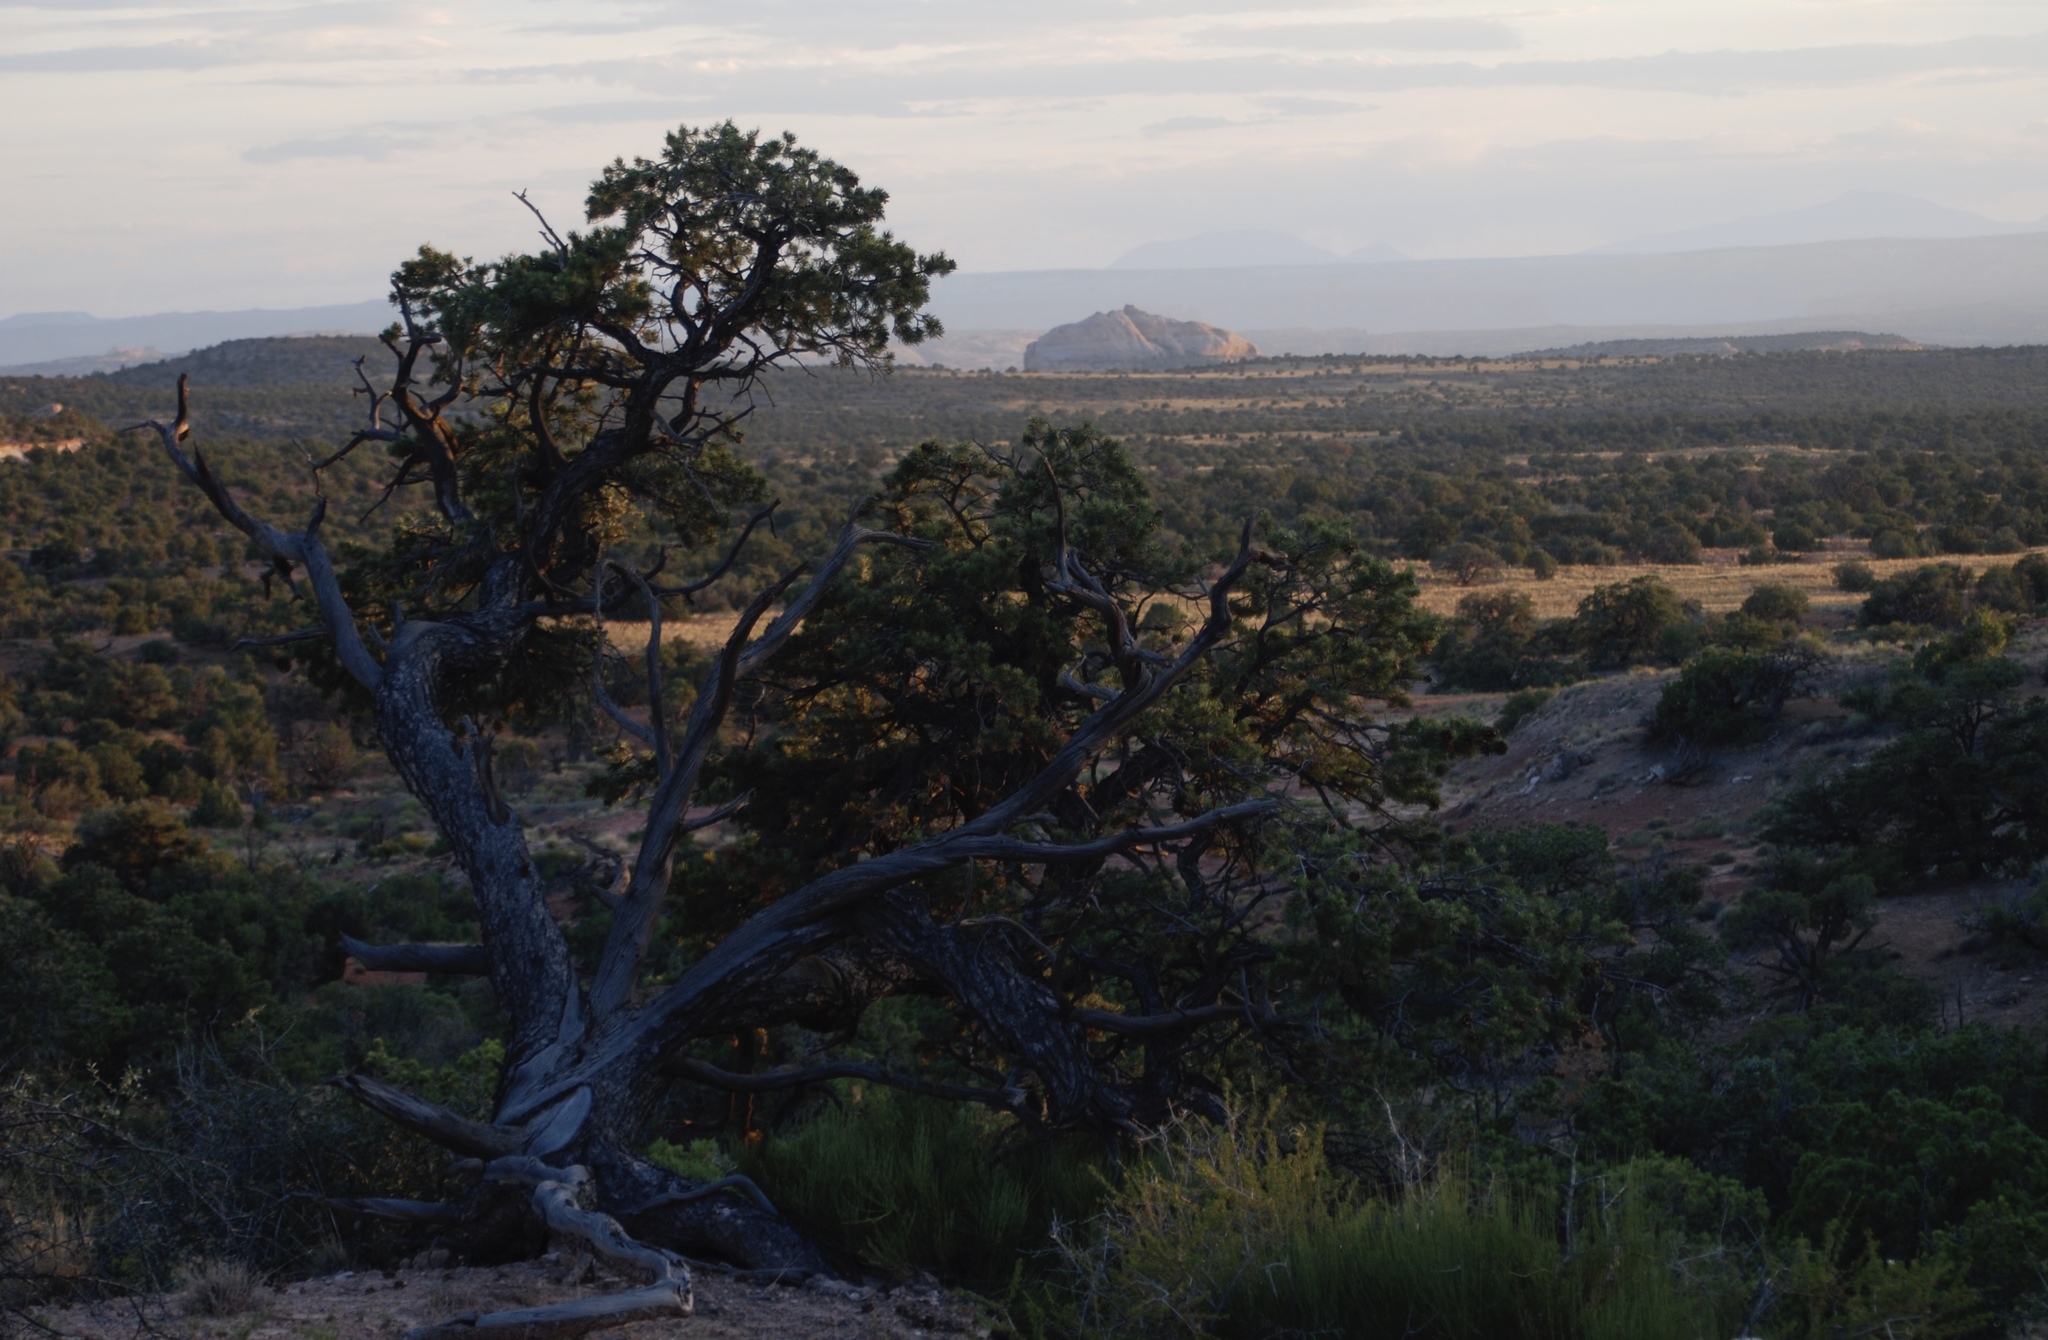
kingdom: Plantae
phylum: Tracheophyta
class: Pinopsida
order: Pinales
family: Pinaceae
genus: Pinus
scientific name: Pinus edulis
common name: Colorado pinyon
